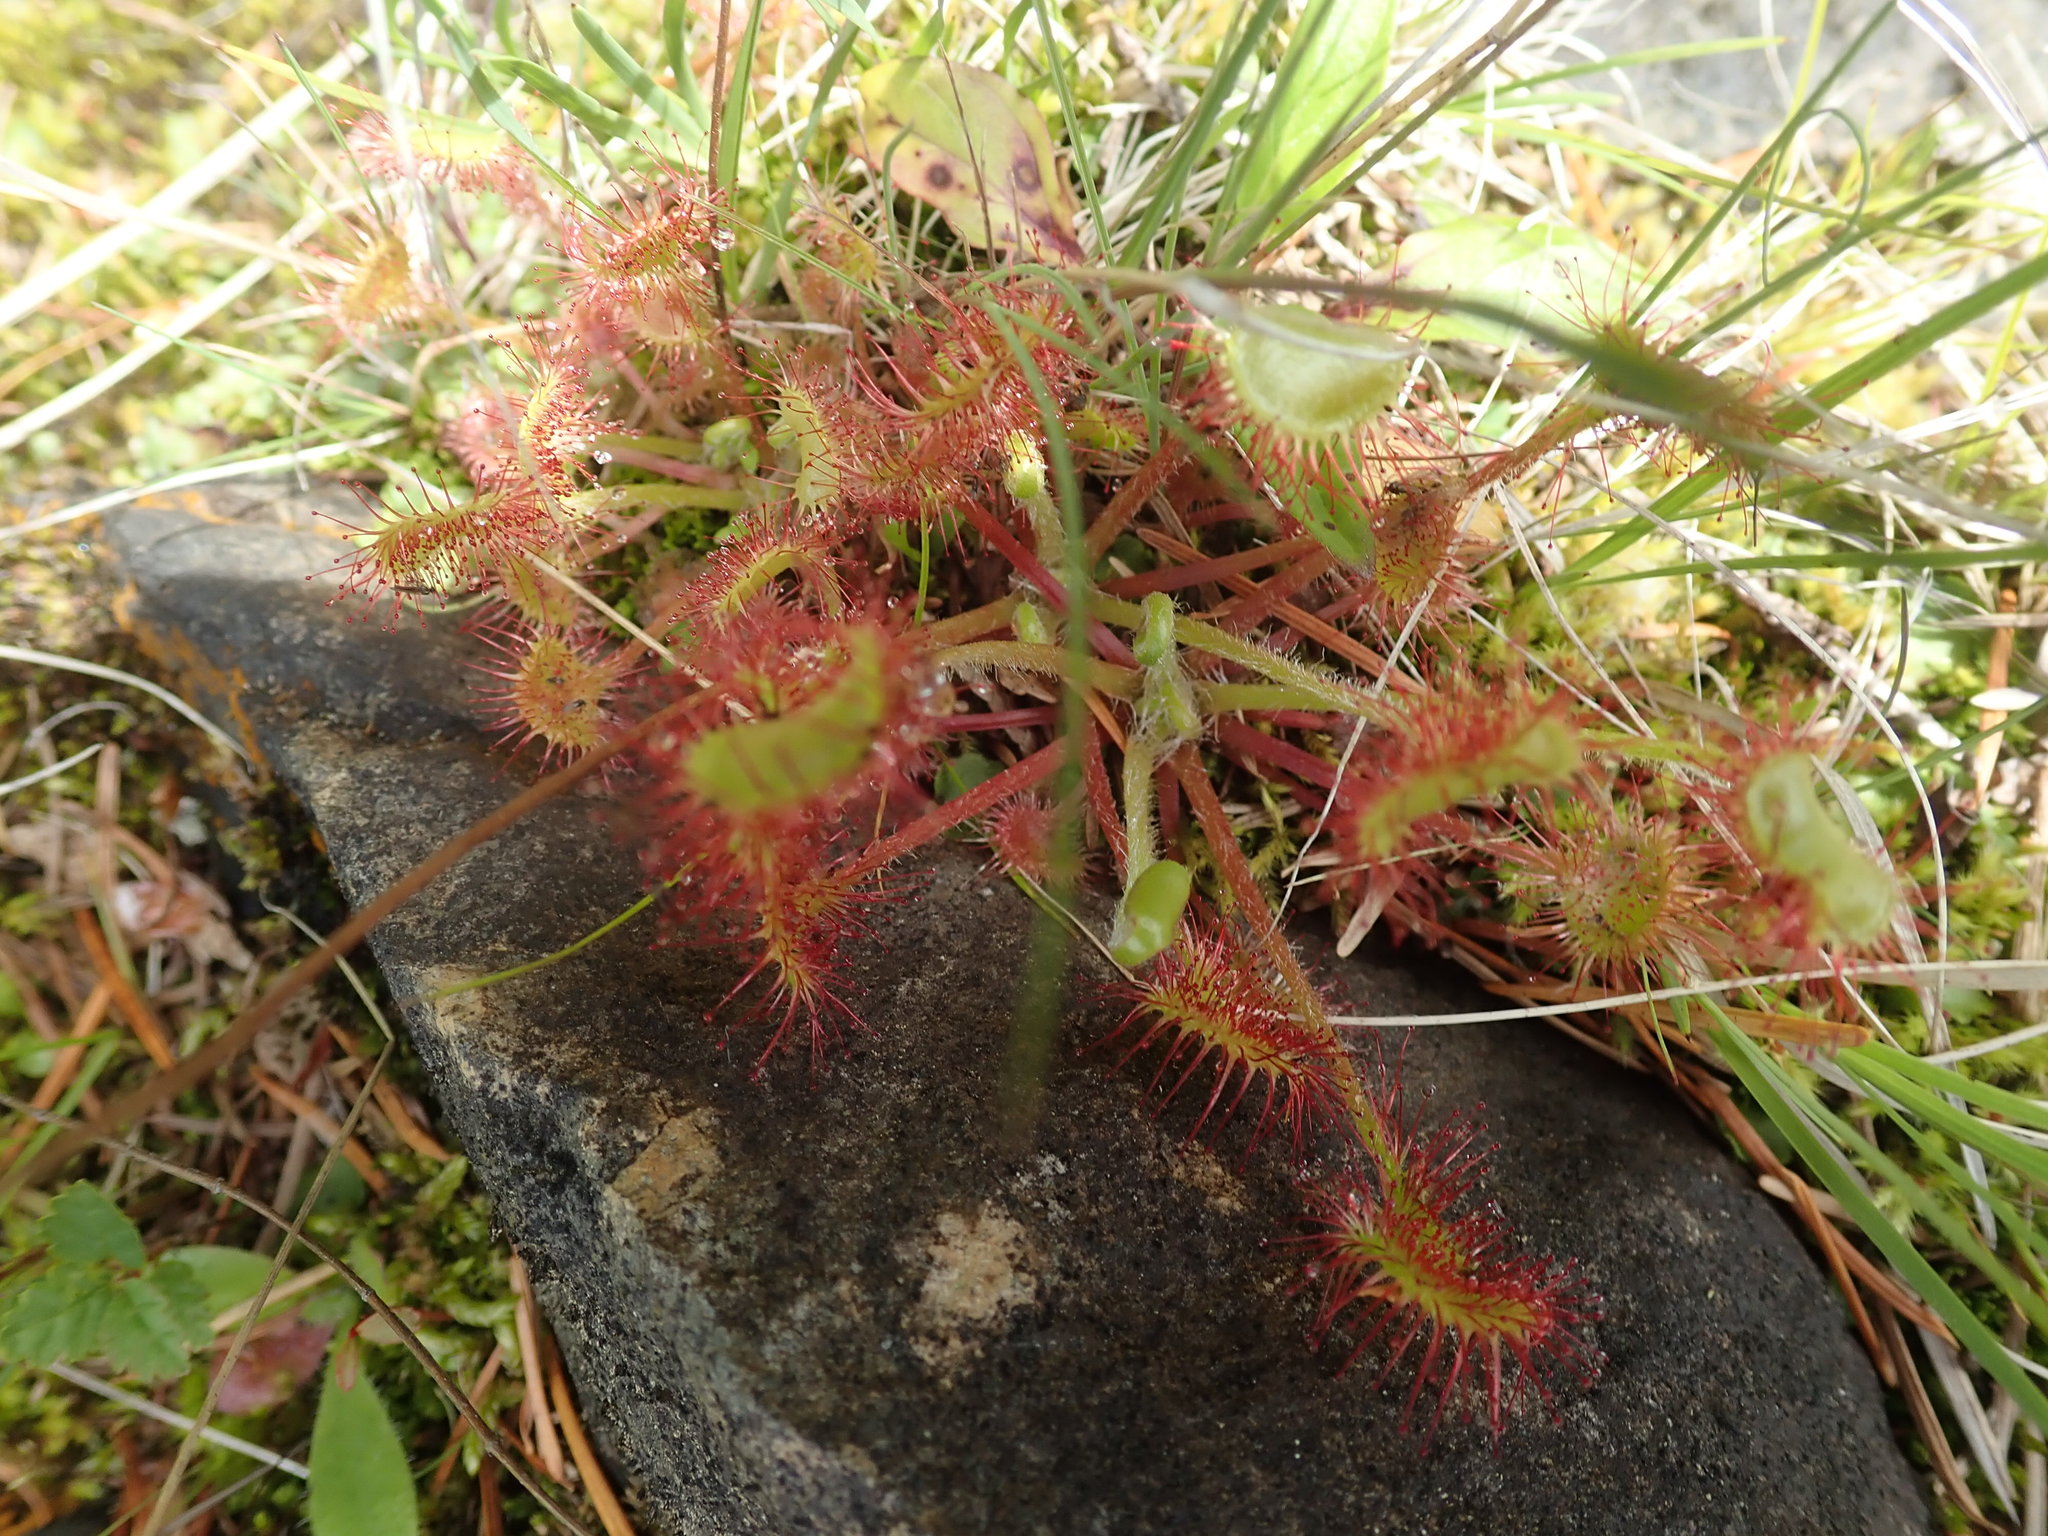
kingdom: Plantae
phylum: Tracheophyta
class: Magnoliopsida
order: Caryophyllales
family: Droseraceae
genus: Drosera
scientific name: Drosera rotundifolia
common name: Round-leaved sundew
